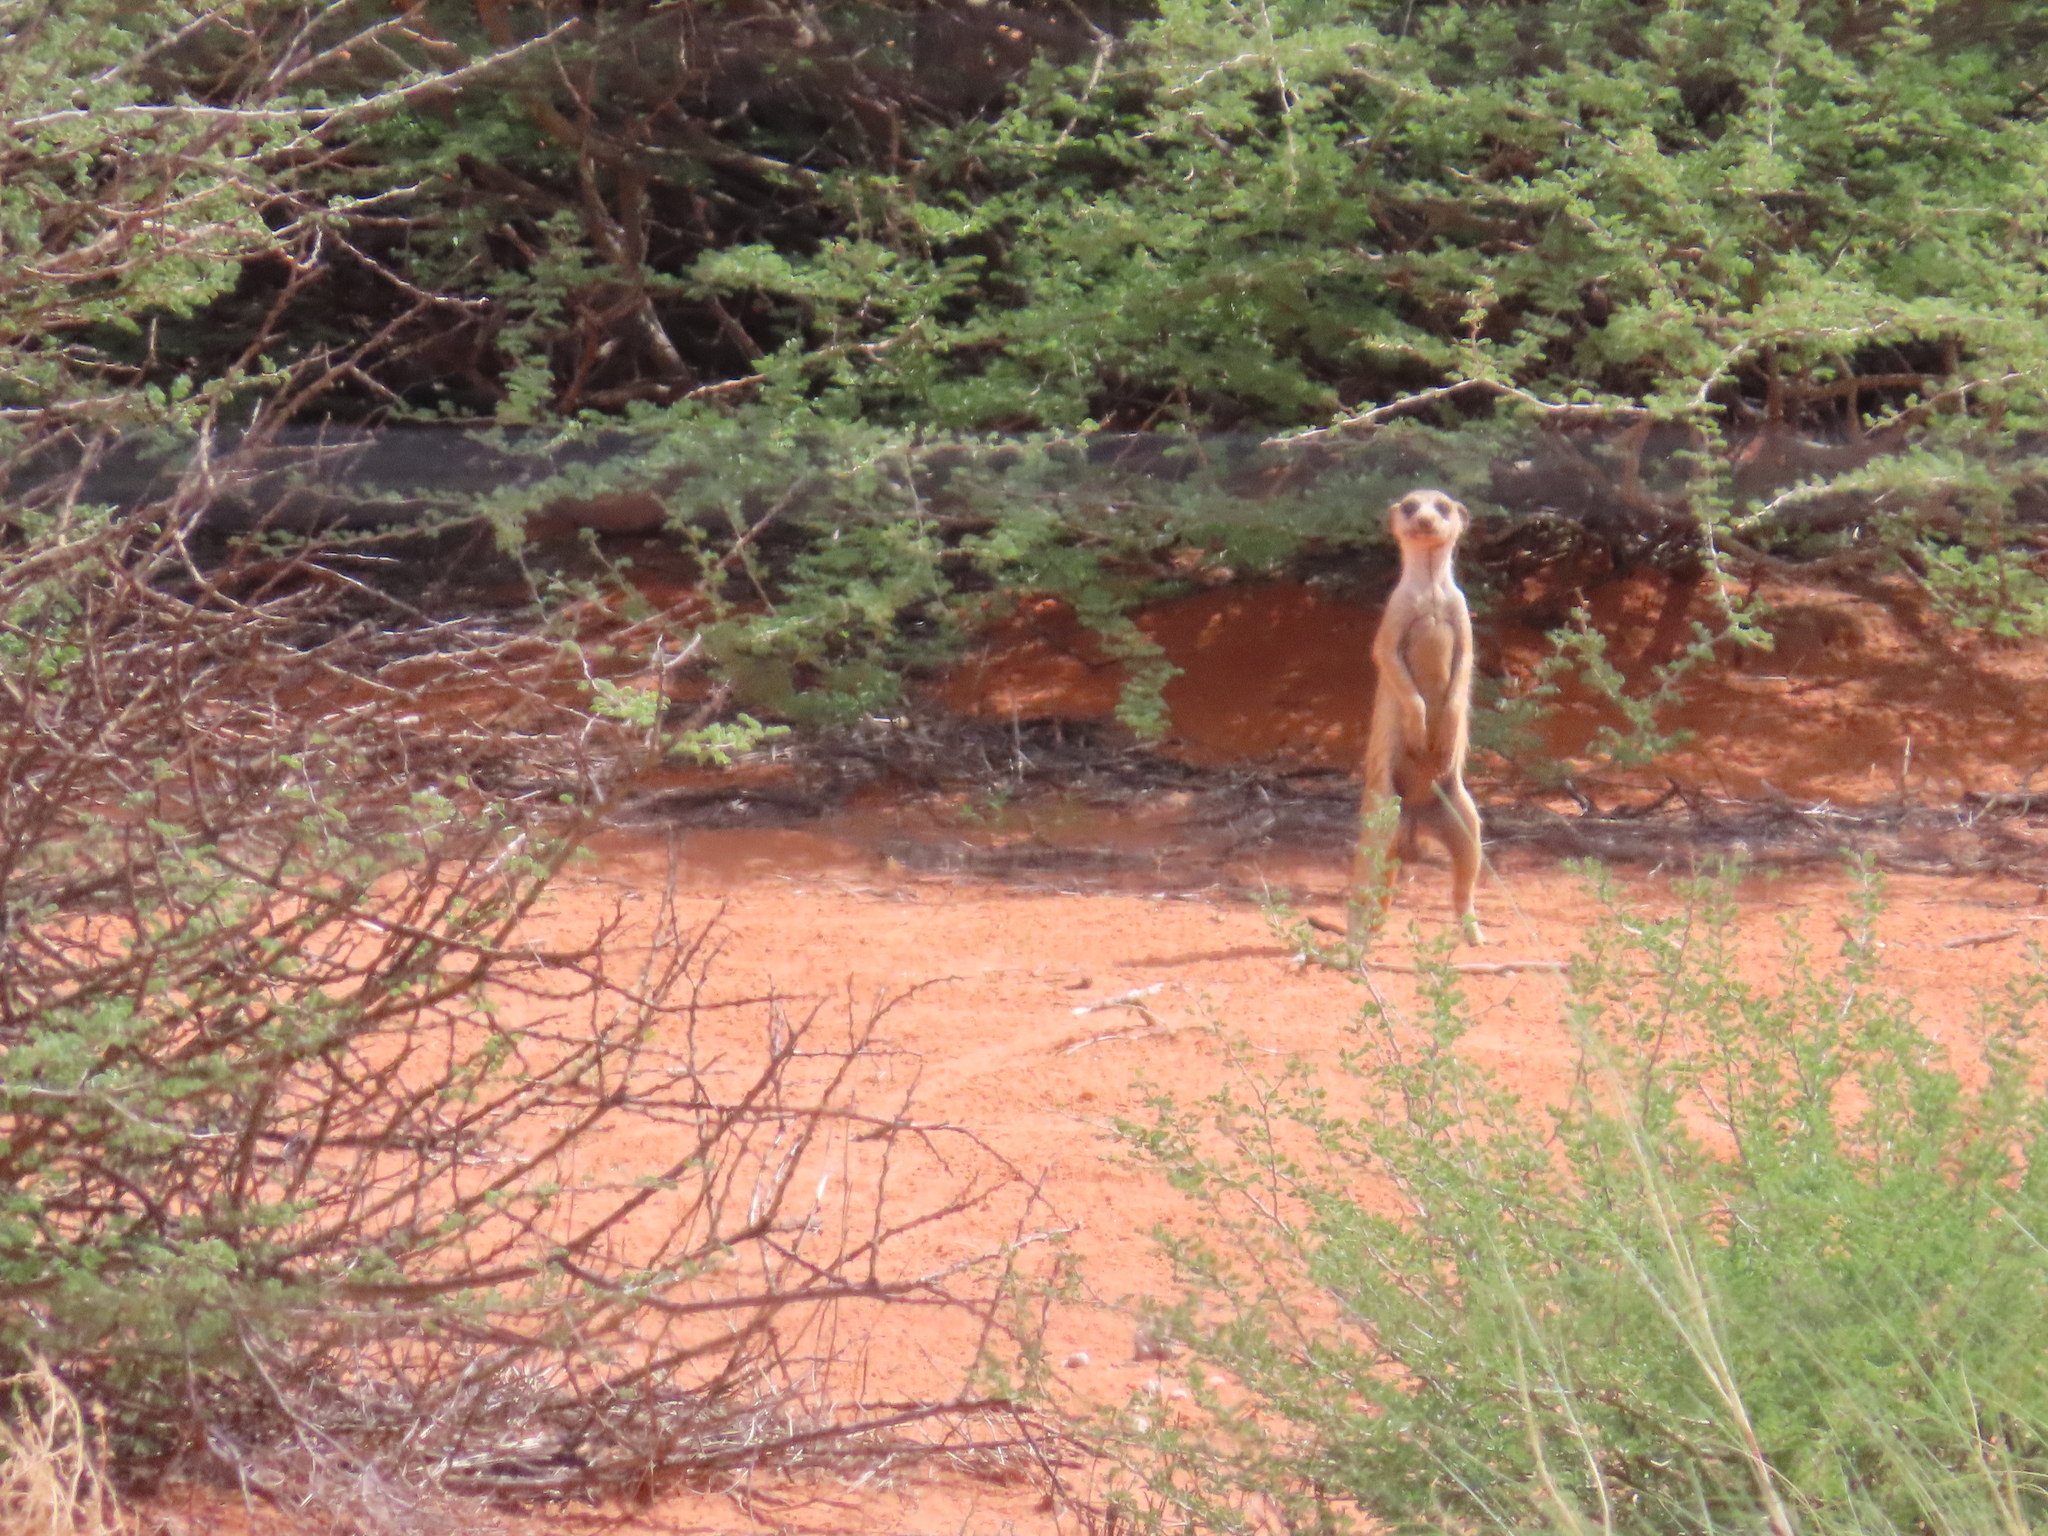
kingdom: Animalia
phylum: Chordata
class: Mammalia
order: Carnivora
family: Herpestidae
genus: Suricata
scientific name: Suricata suricatta
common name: Meerkat
